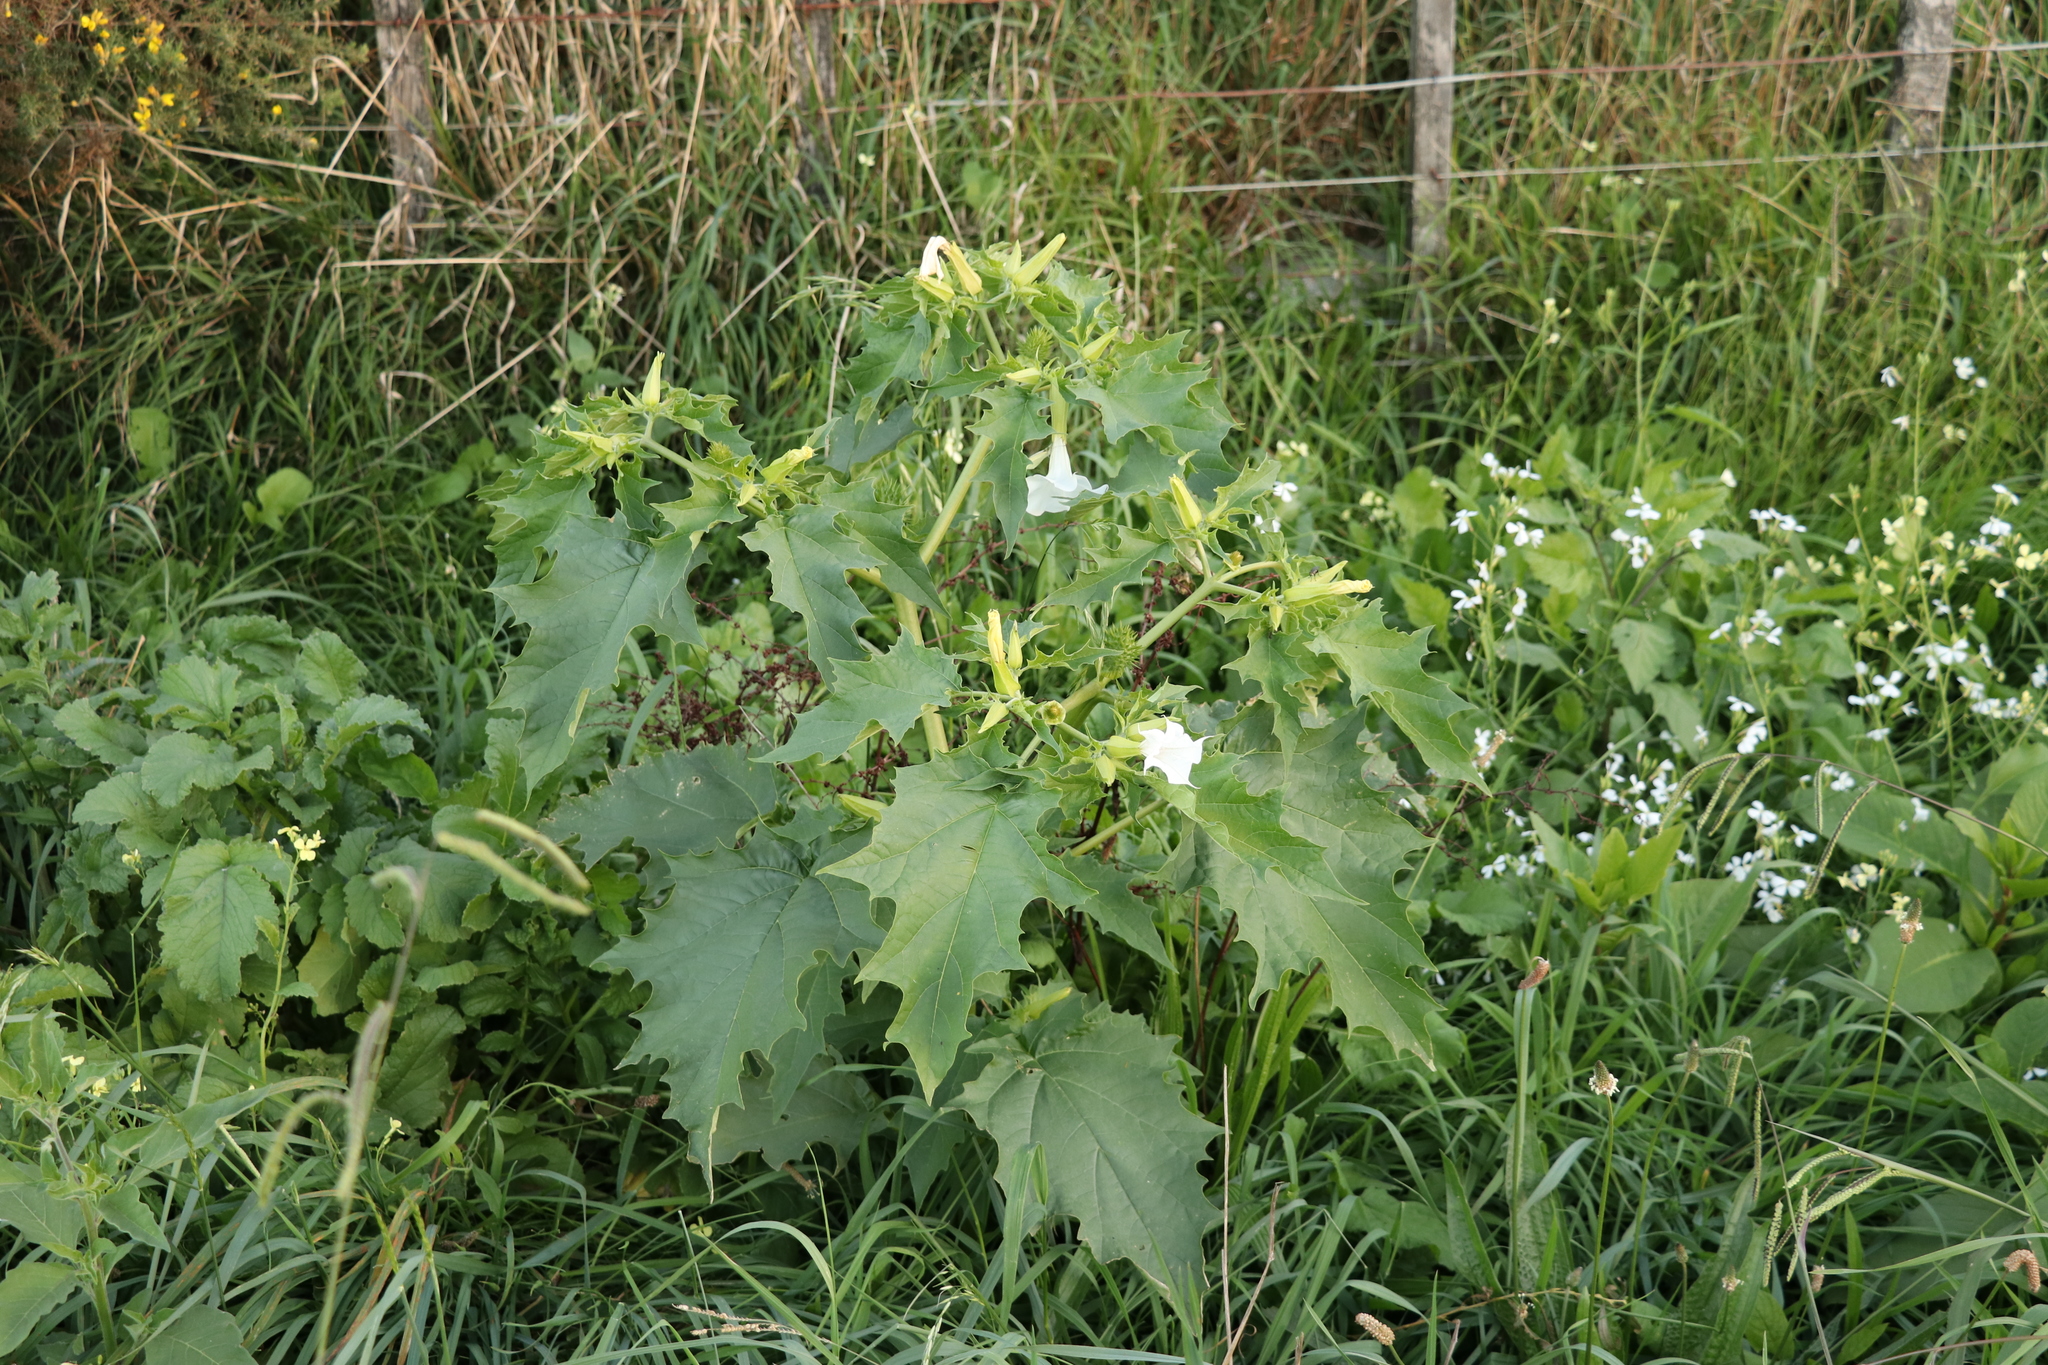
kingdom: Plantae
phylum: Tracheophyta
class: Magnoliopsida
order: Solanales
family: Solanaceae
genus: Datura
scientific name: Datura stramonium
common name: Thorn-apple
